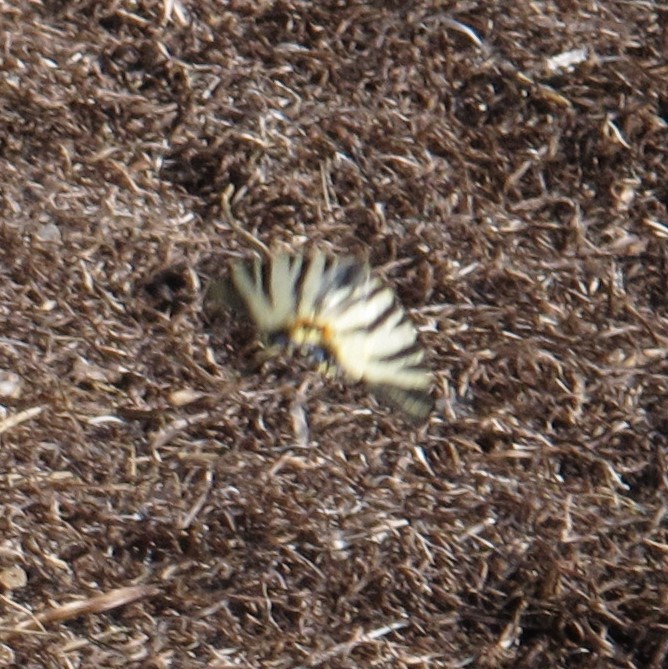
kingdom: Animalia
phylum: Arthropoda
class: Insecta
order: Lepidoptera
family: Papilionidae
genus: Iphiclides
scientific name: Iphiclides podalirius
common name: Scarce swallowtail
